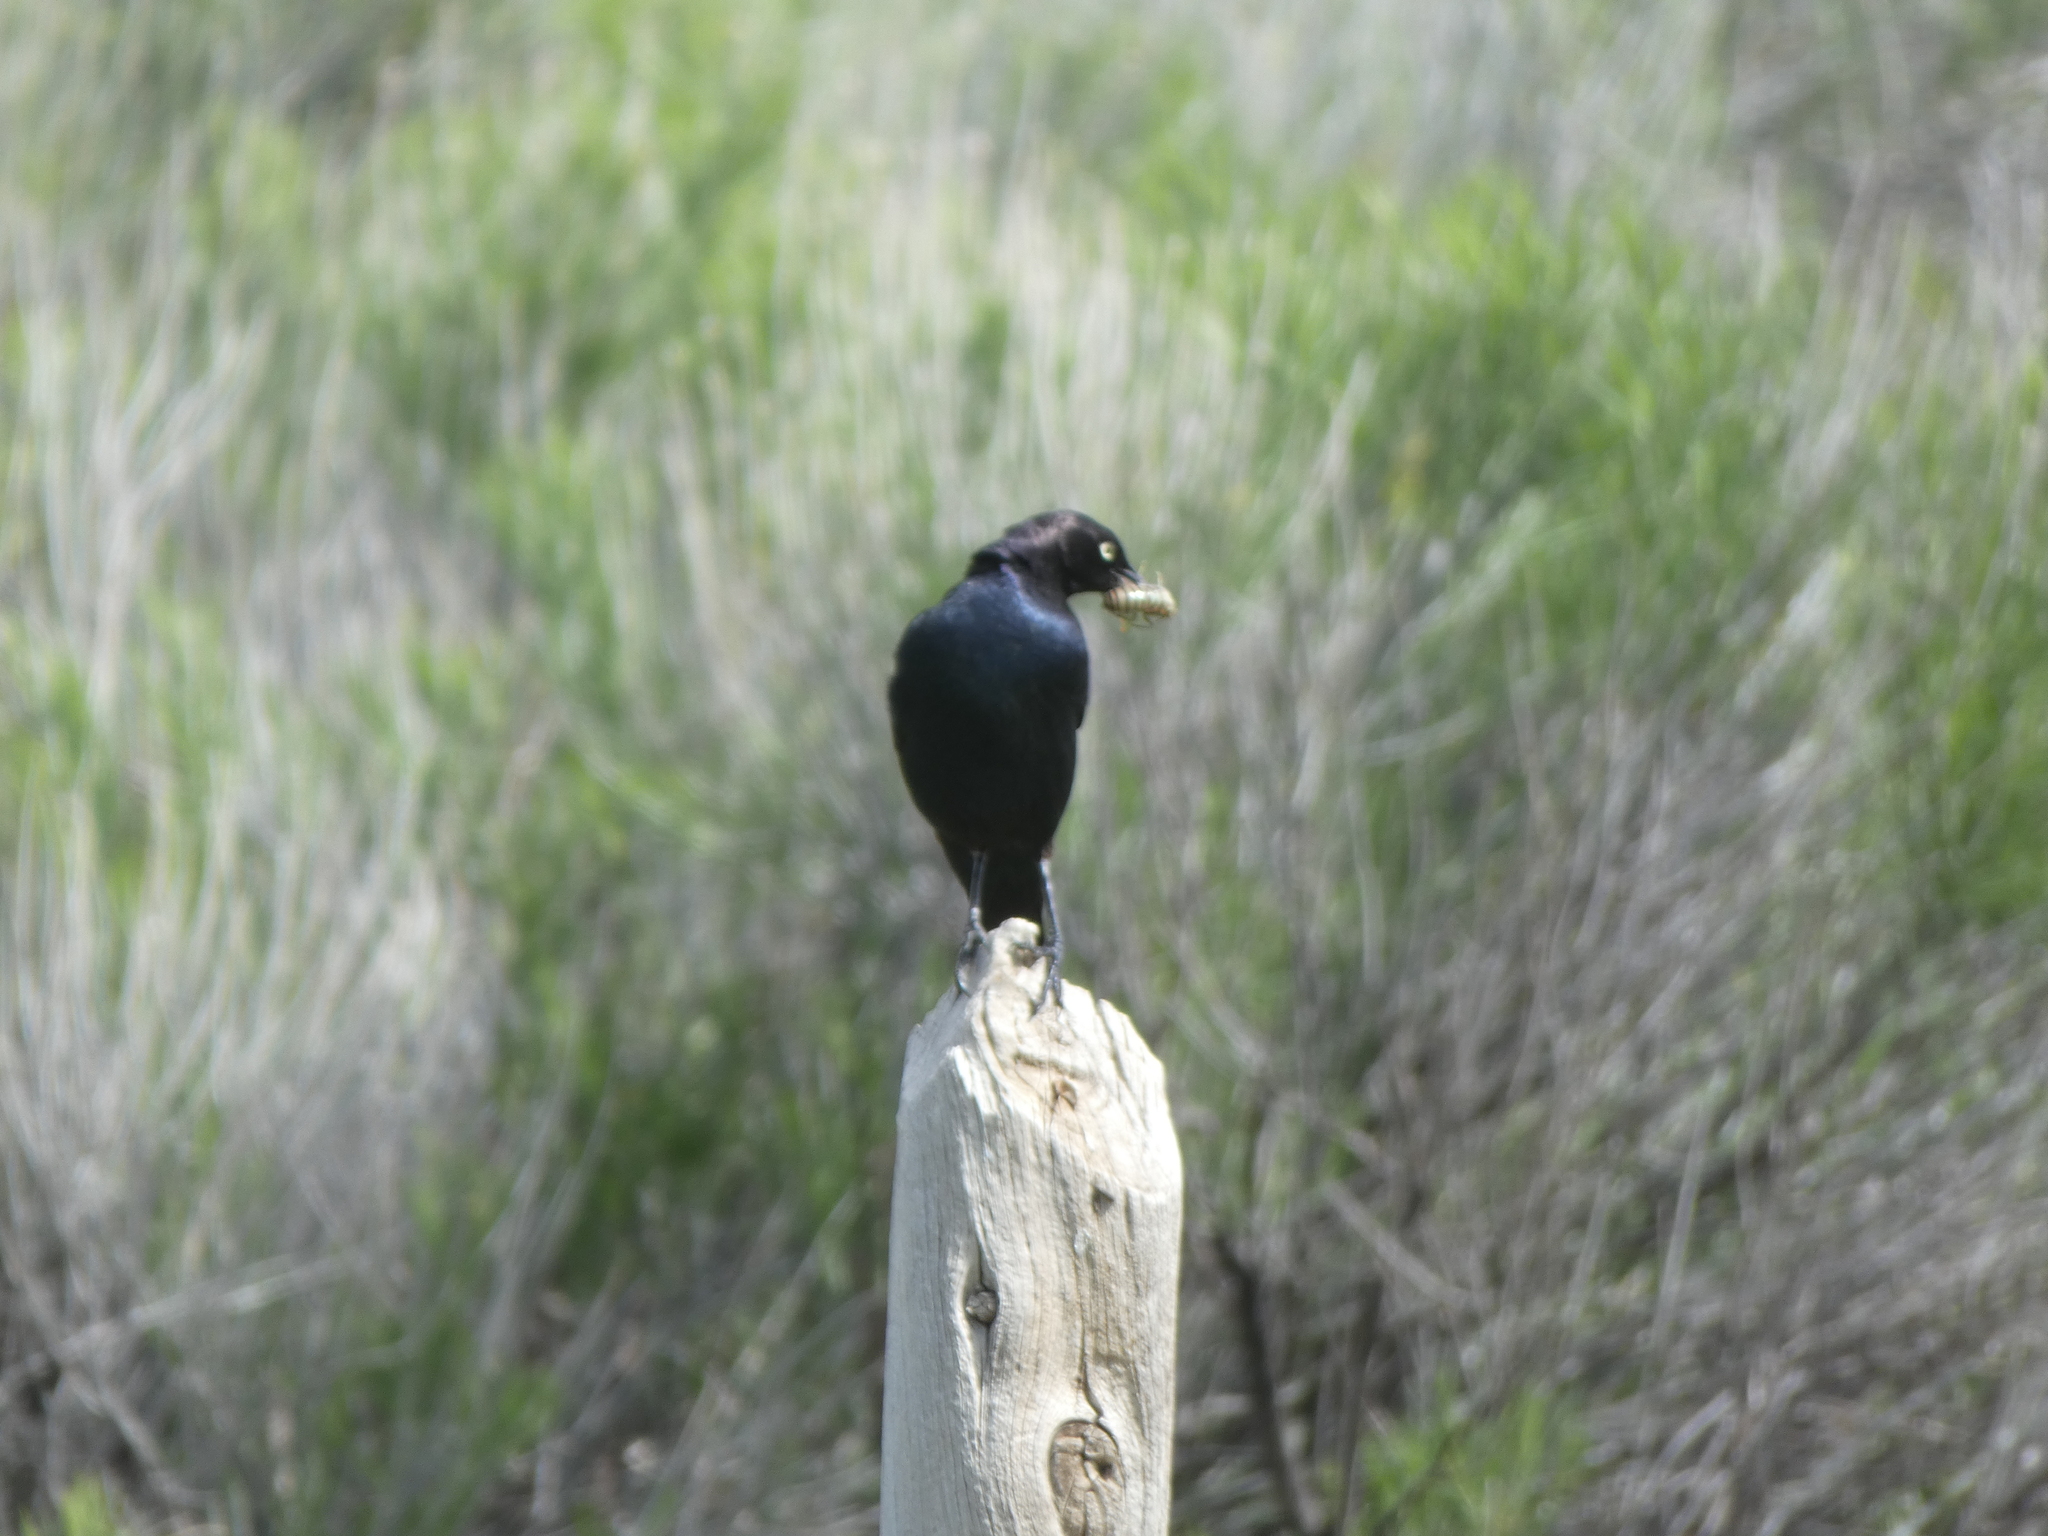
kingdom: Animalia
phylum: Chordata
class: Aves
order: Passeriformes
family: Icteridae
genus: Euphagus
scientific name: Euphagus cyanocephalus
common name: Brewer's blackbird
